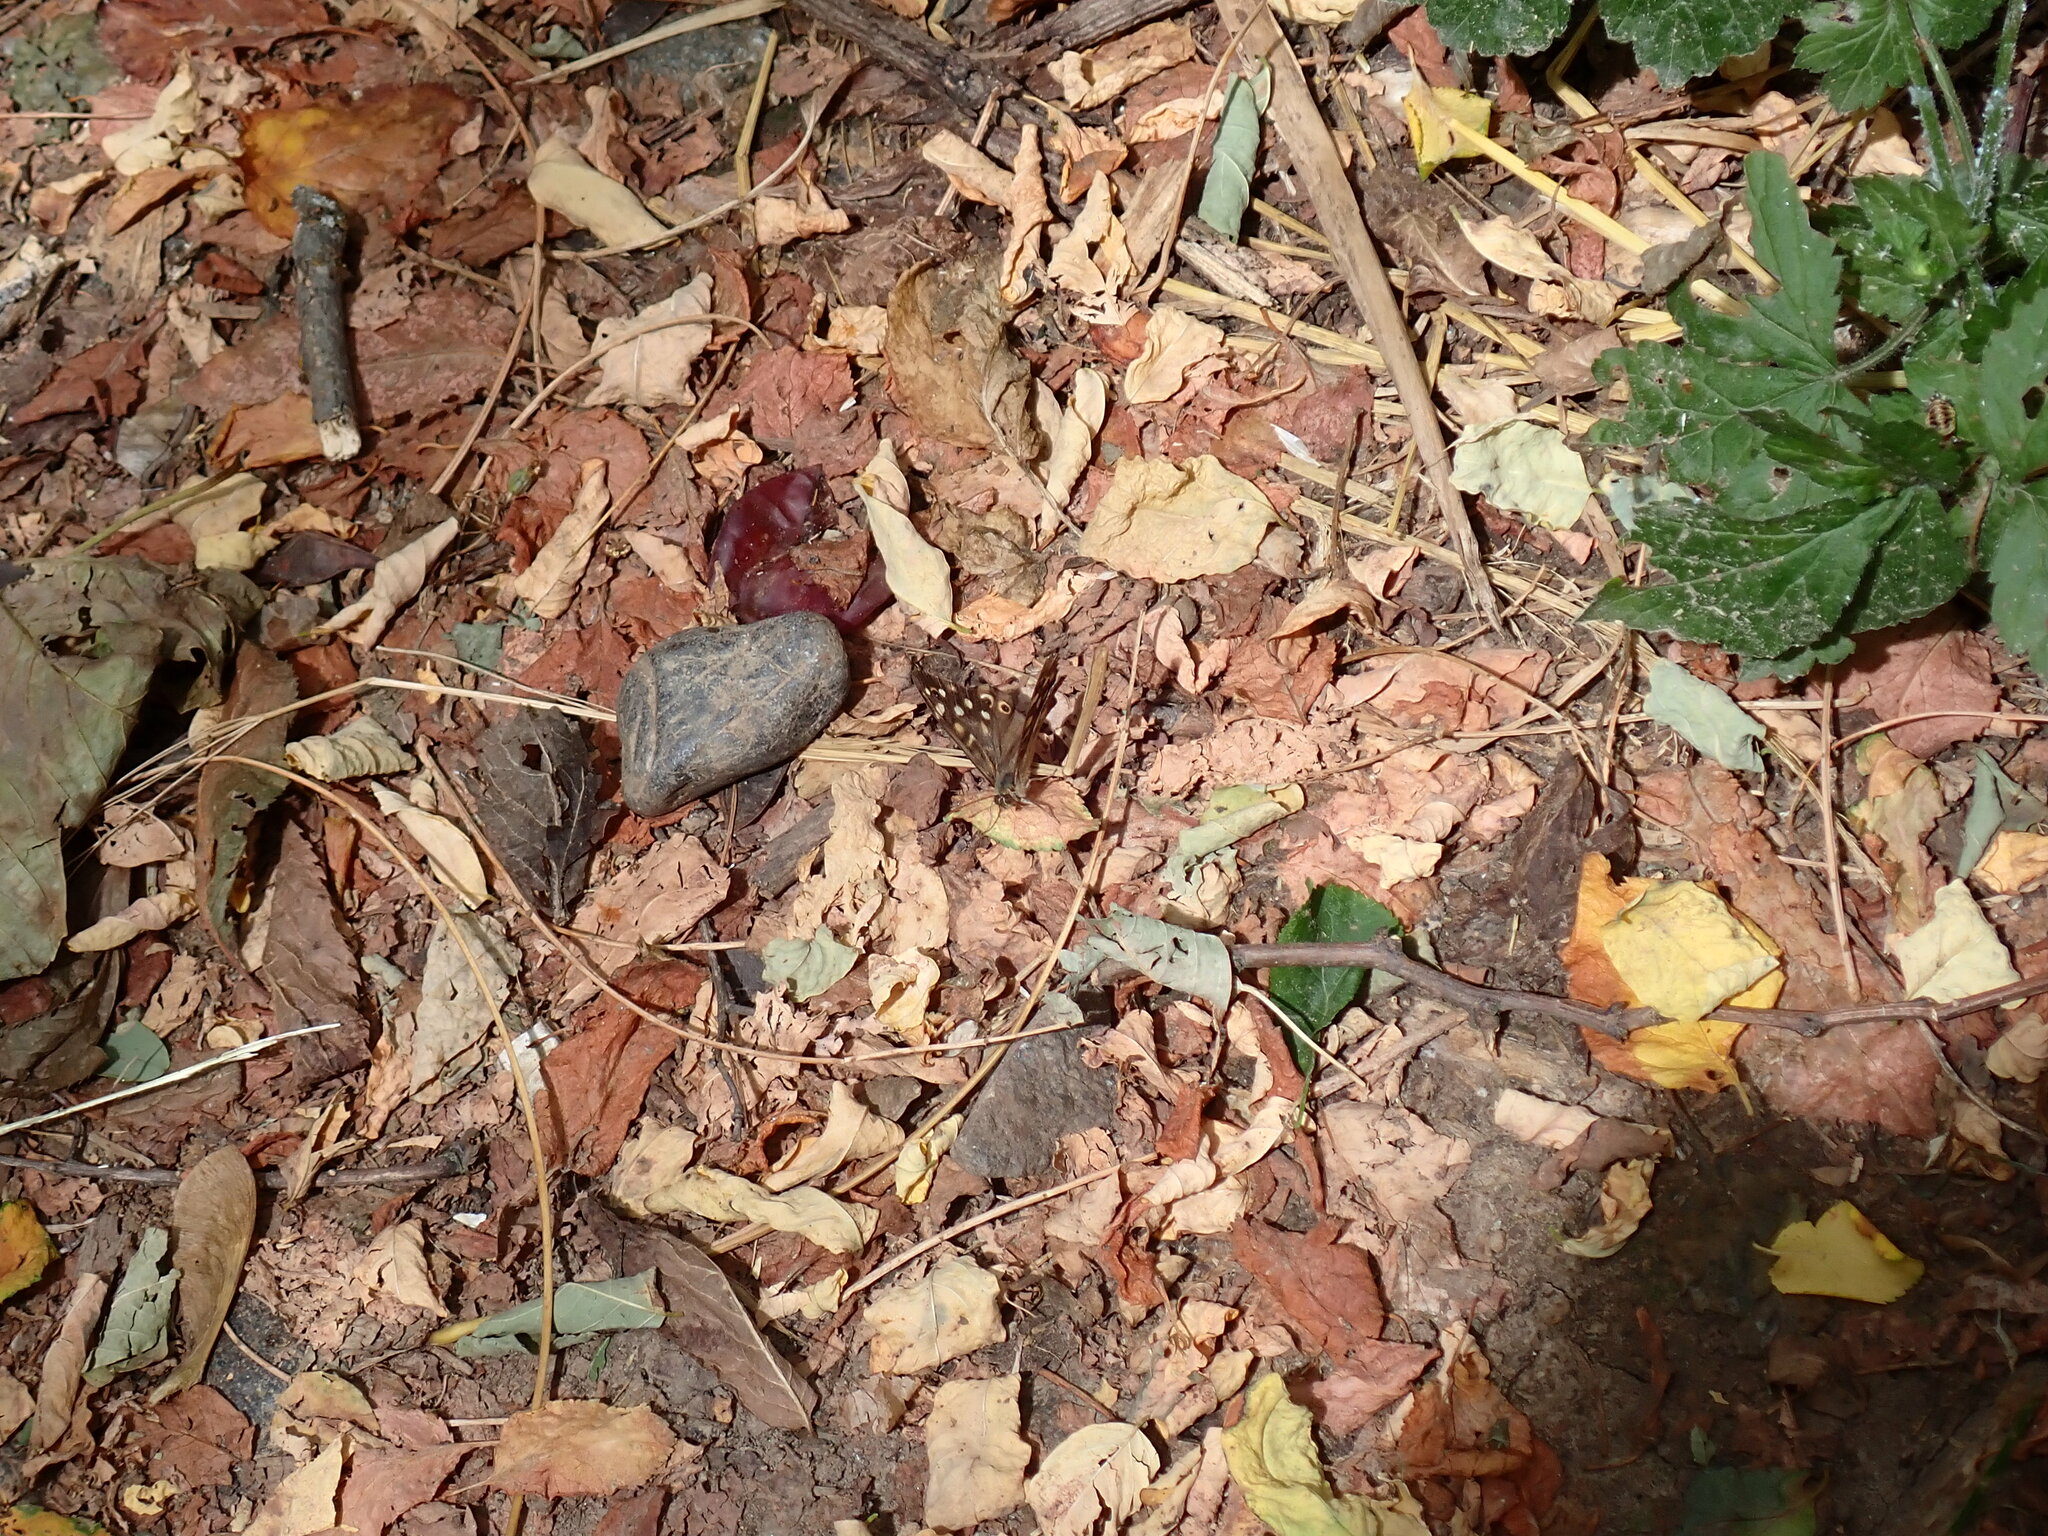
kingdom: Animalia
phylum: Arthropoda
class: Insecta
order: Lepidoptera
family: Nymphalidae
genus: Pararge
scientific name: Pararge aegeria
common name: Speckled wood
